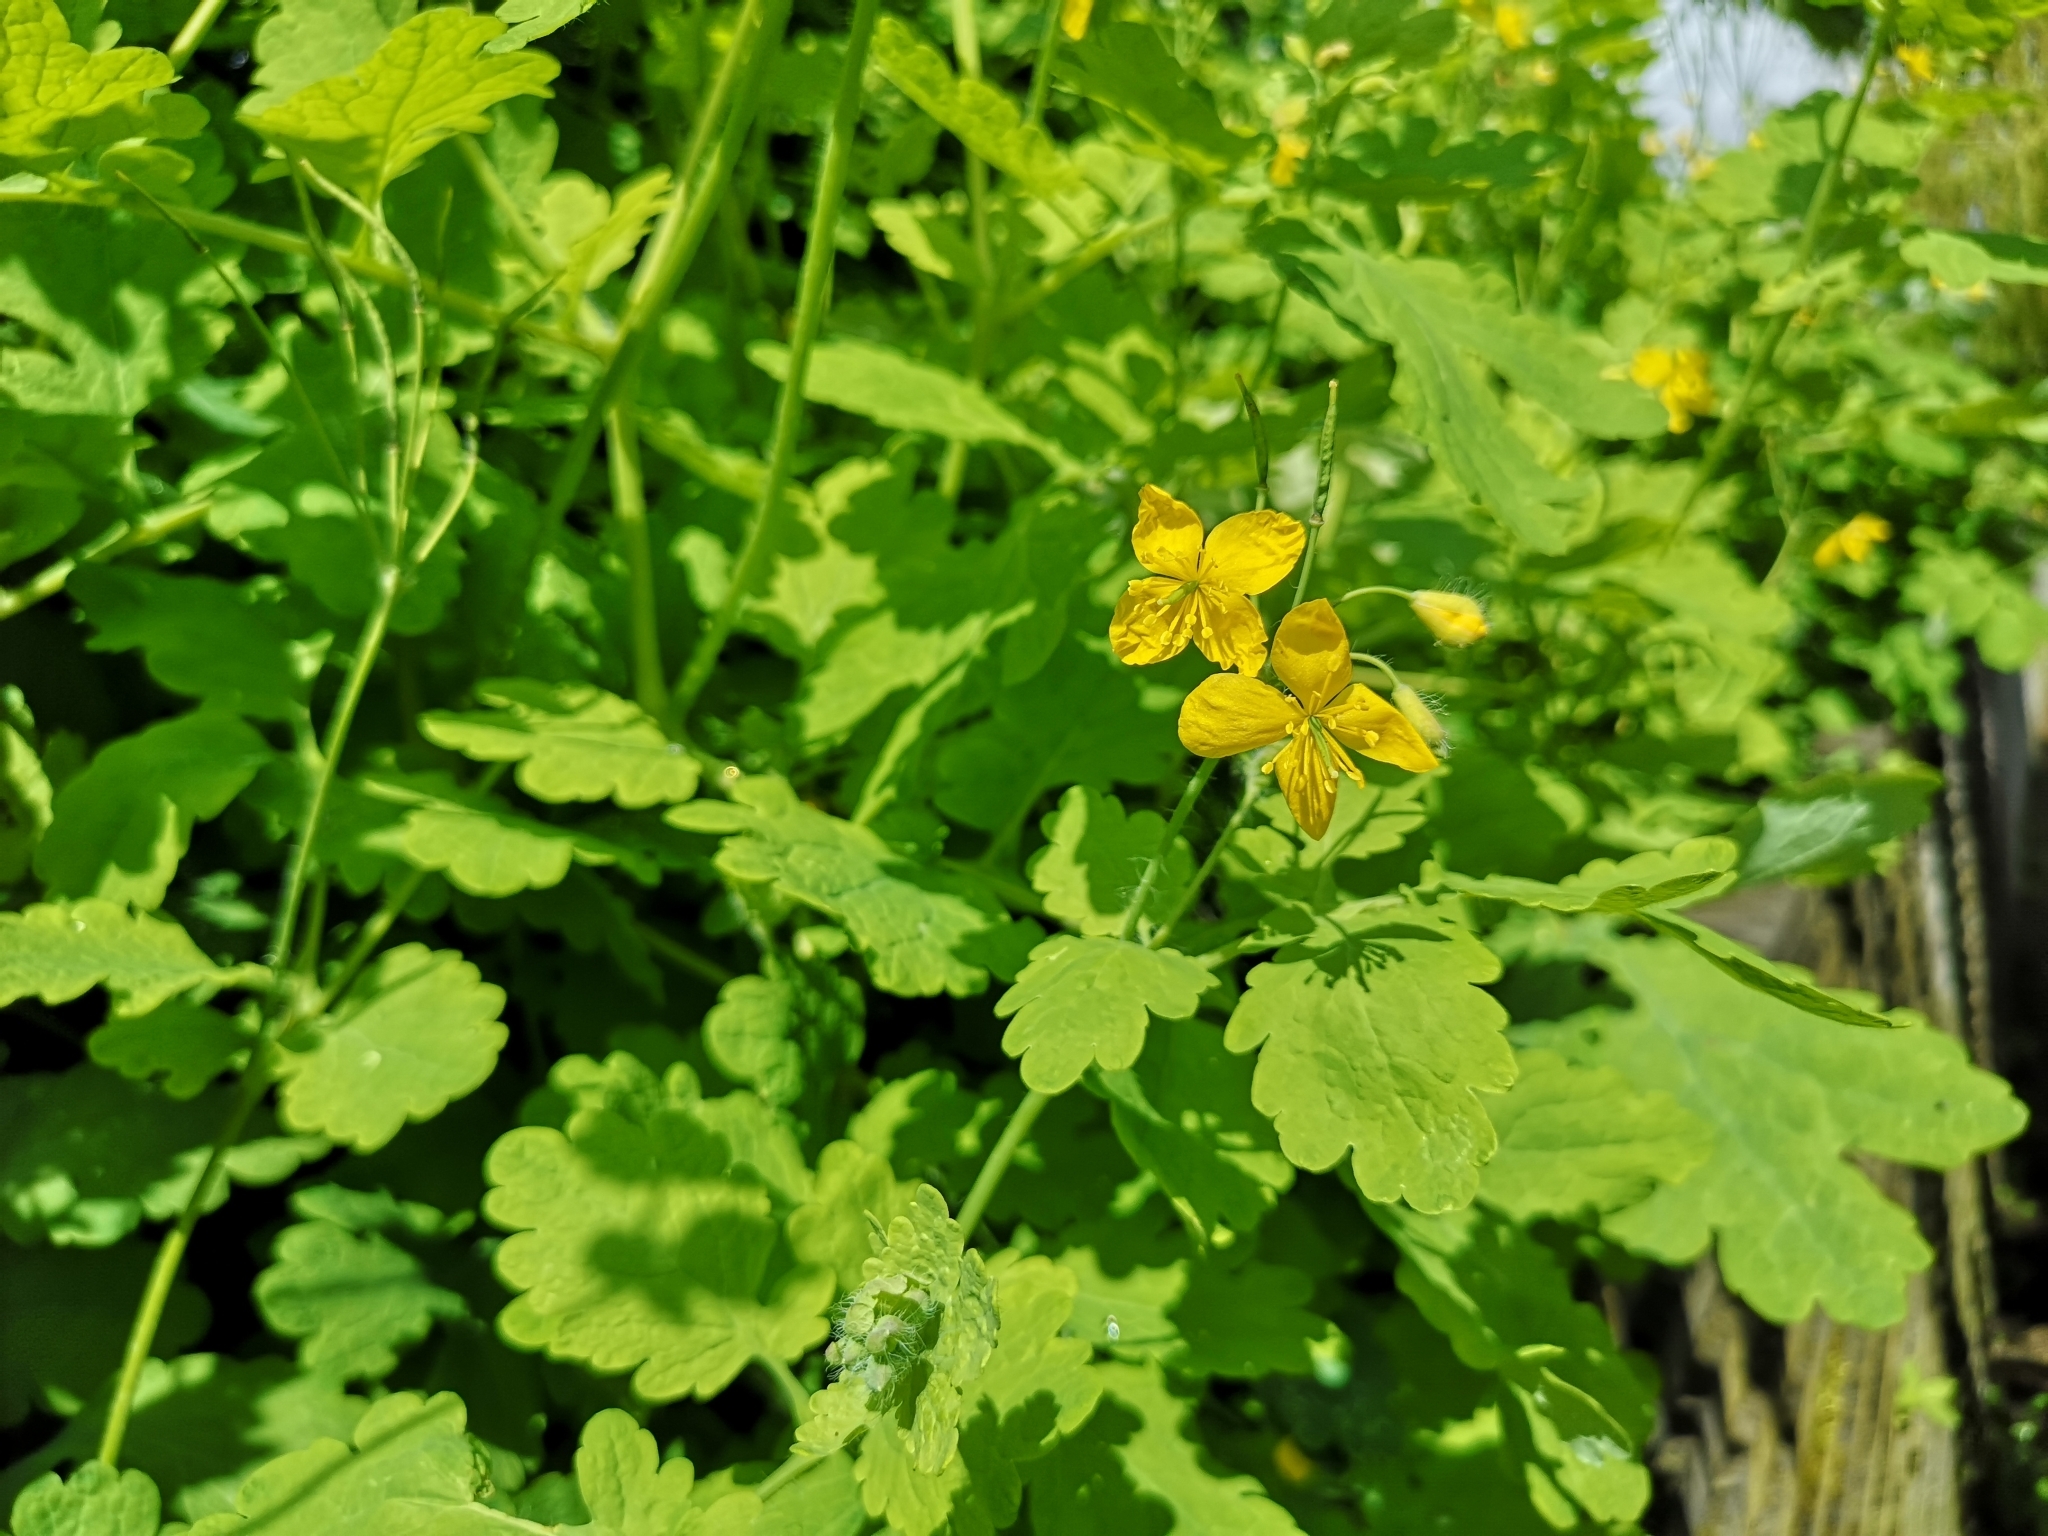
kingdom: Plantae
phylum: Tracheophyta
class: Magnoliopsida
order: Ranunculales
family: Papaveraceae
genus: Chelidonium
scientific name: Chelidonium majus
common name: Greater celandine
